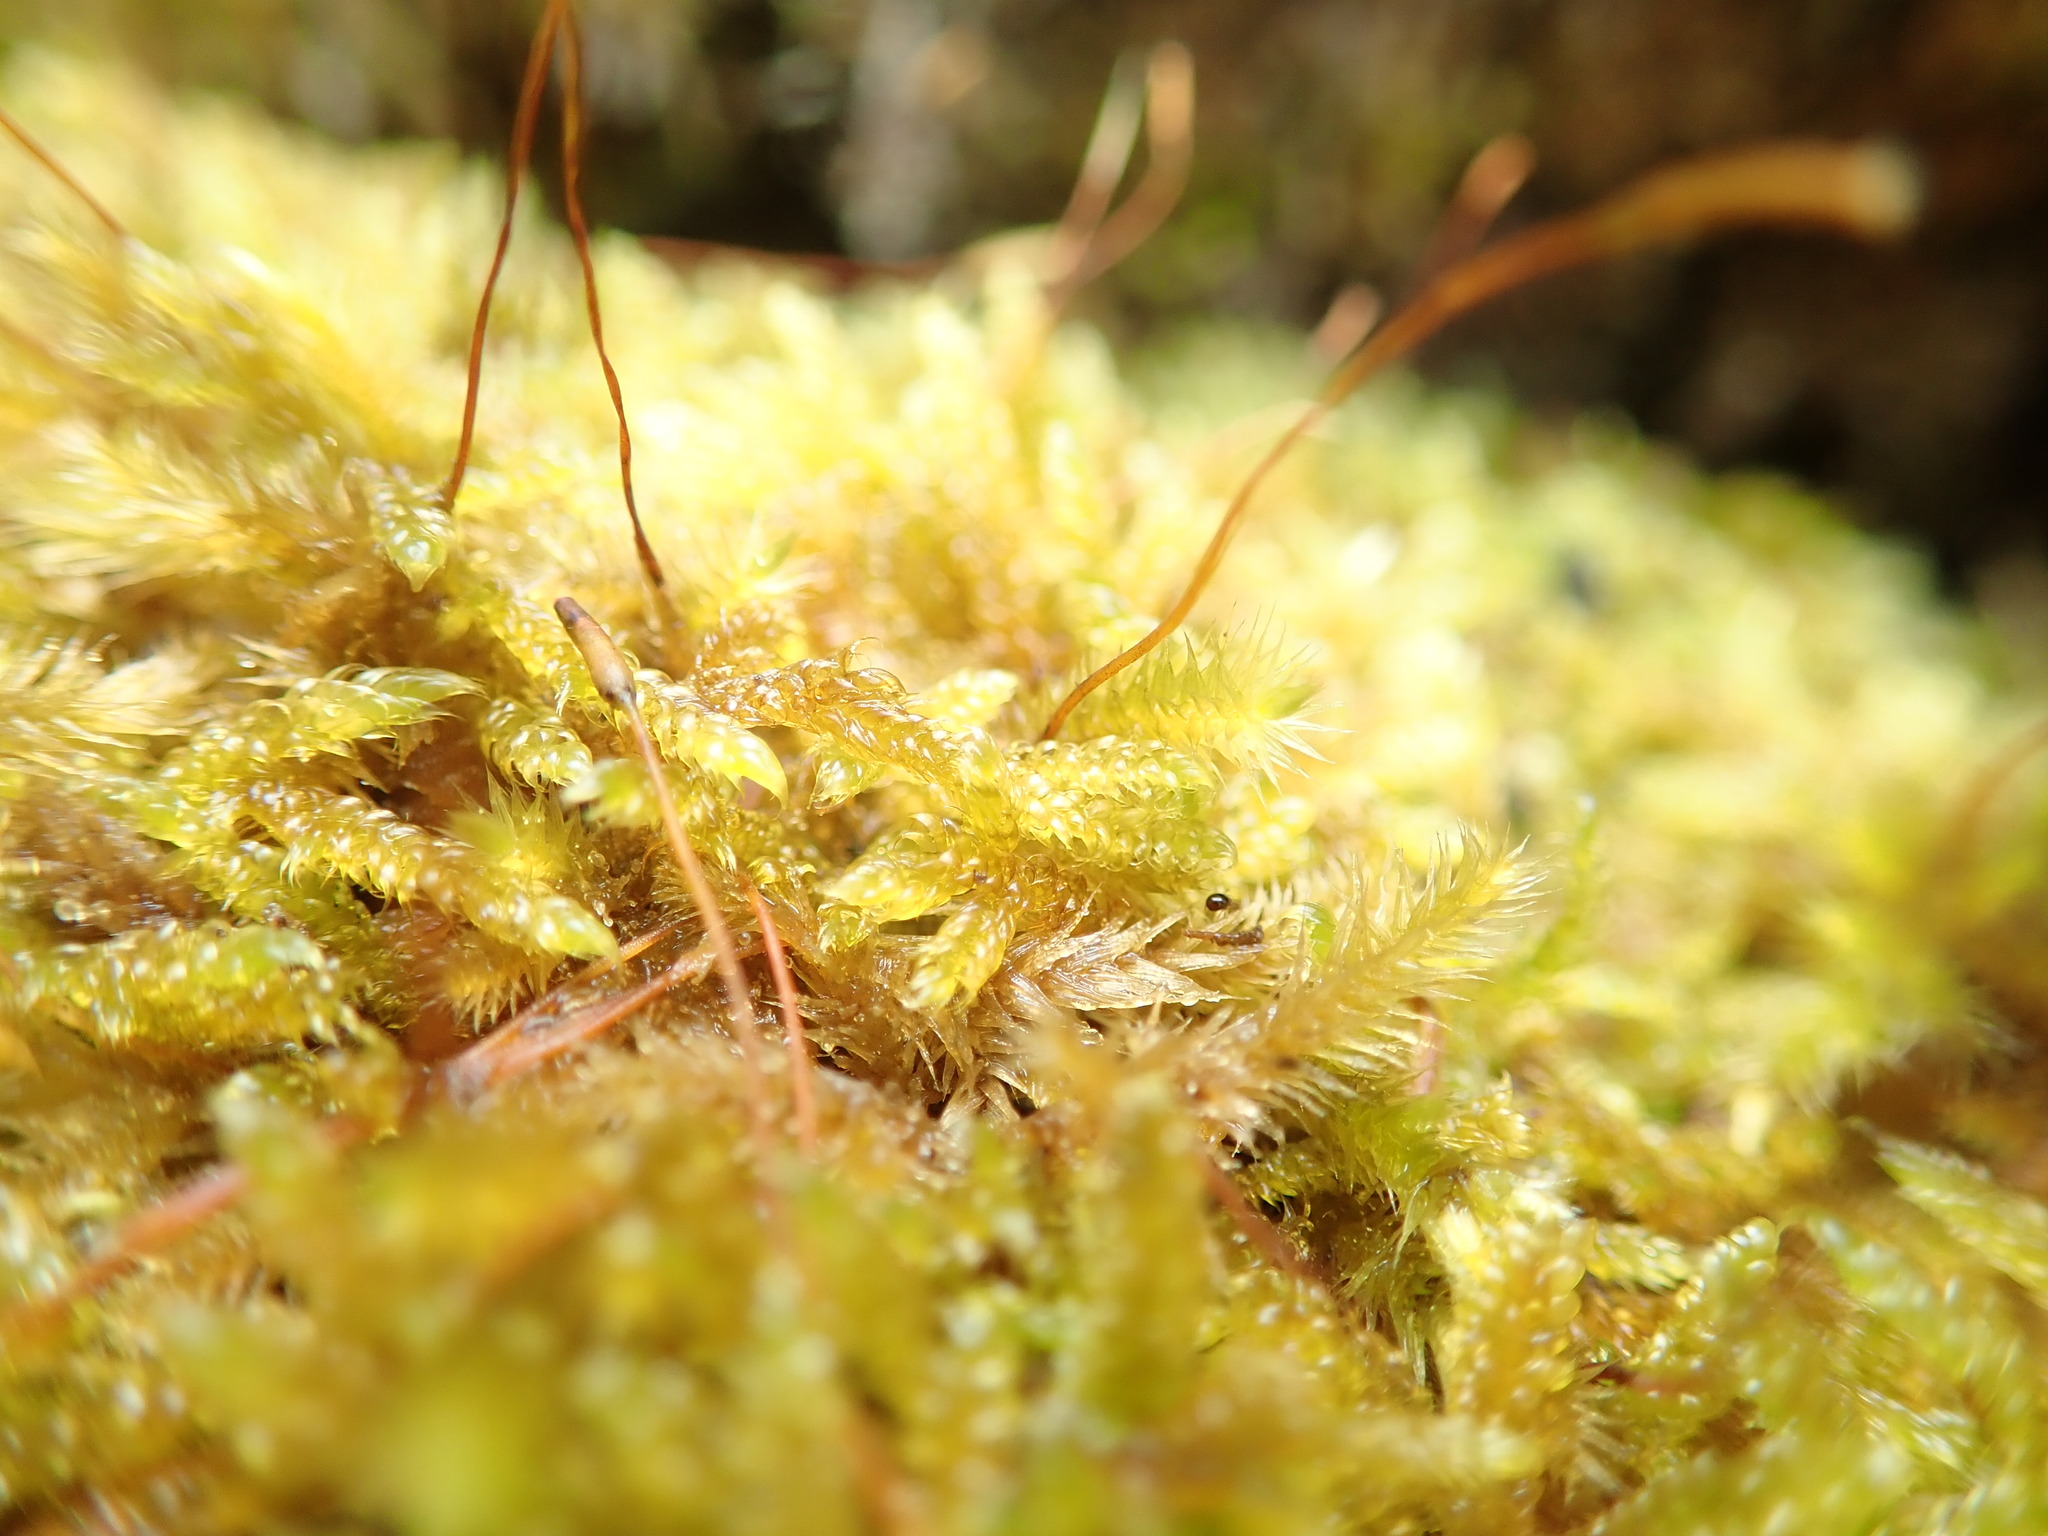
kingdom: Plantae
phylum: Bryophyta
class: Bryopsida
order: Hypnales
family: Hypnaceae
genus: Hypnum
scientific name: Hypnum cupressiforme
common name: Cypress-leaved plait-moss
